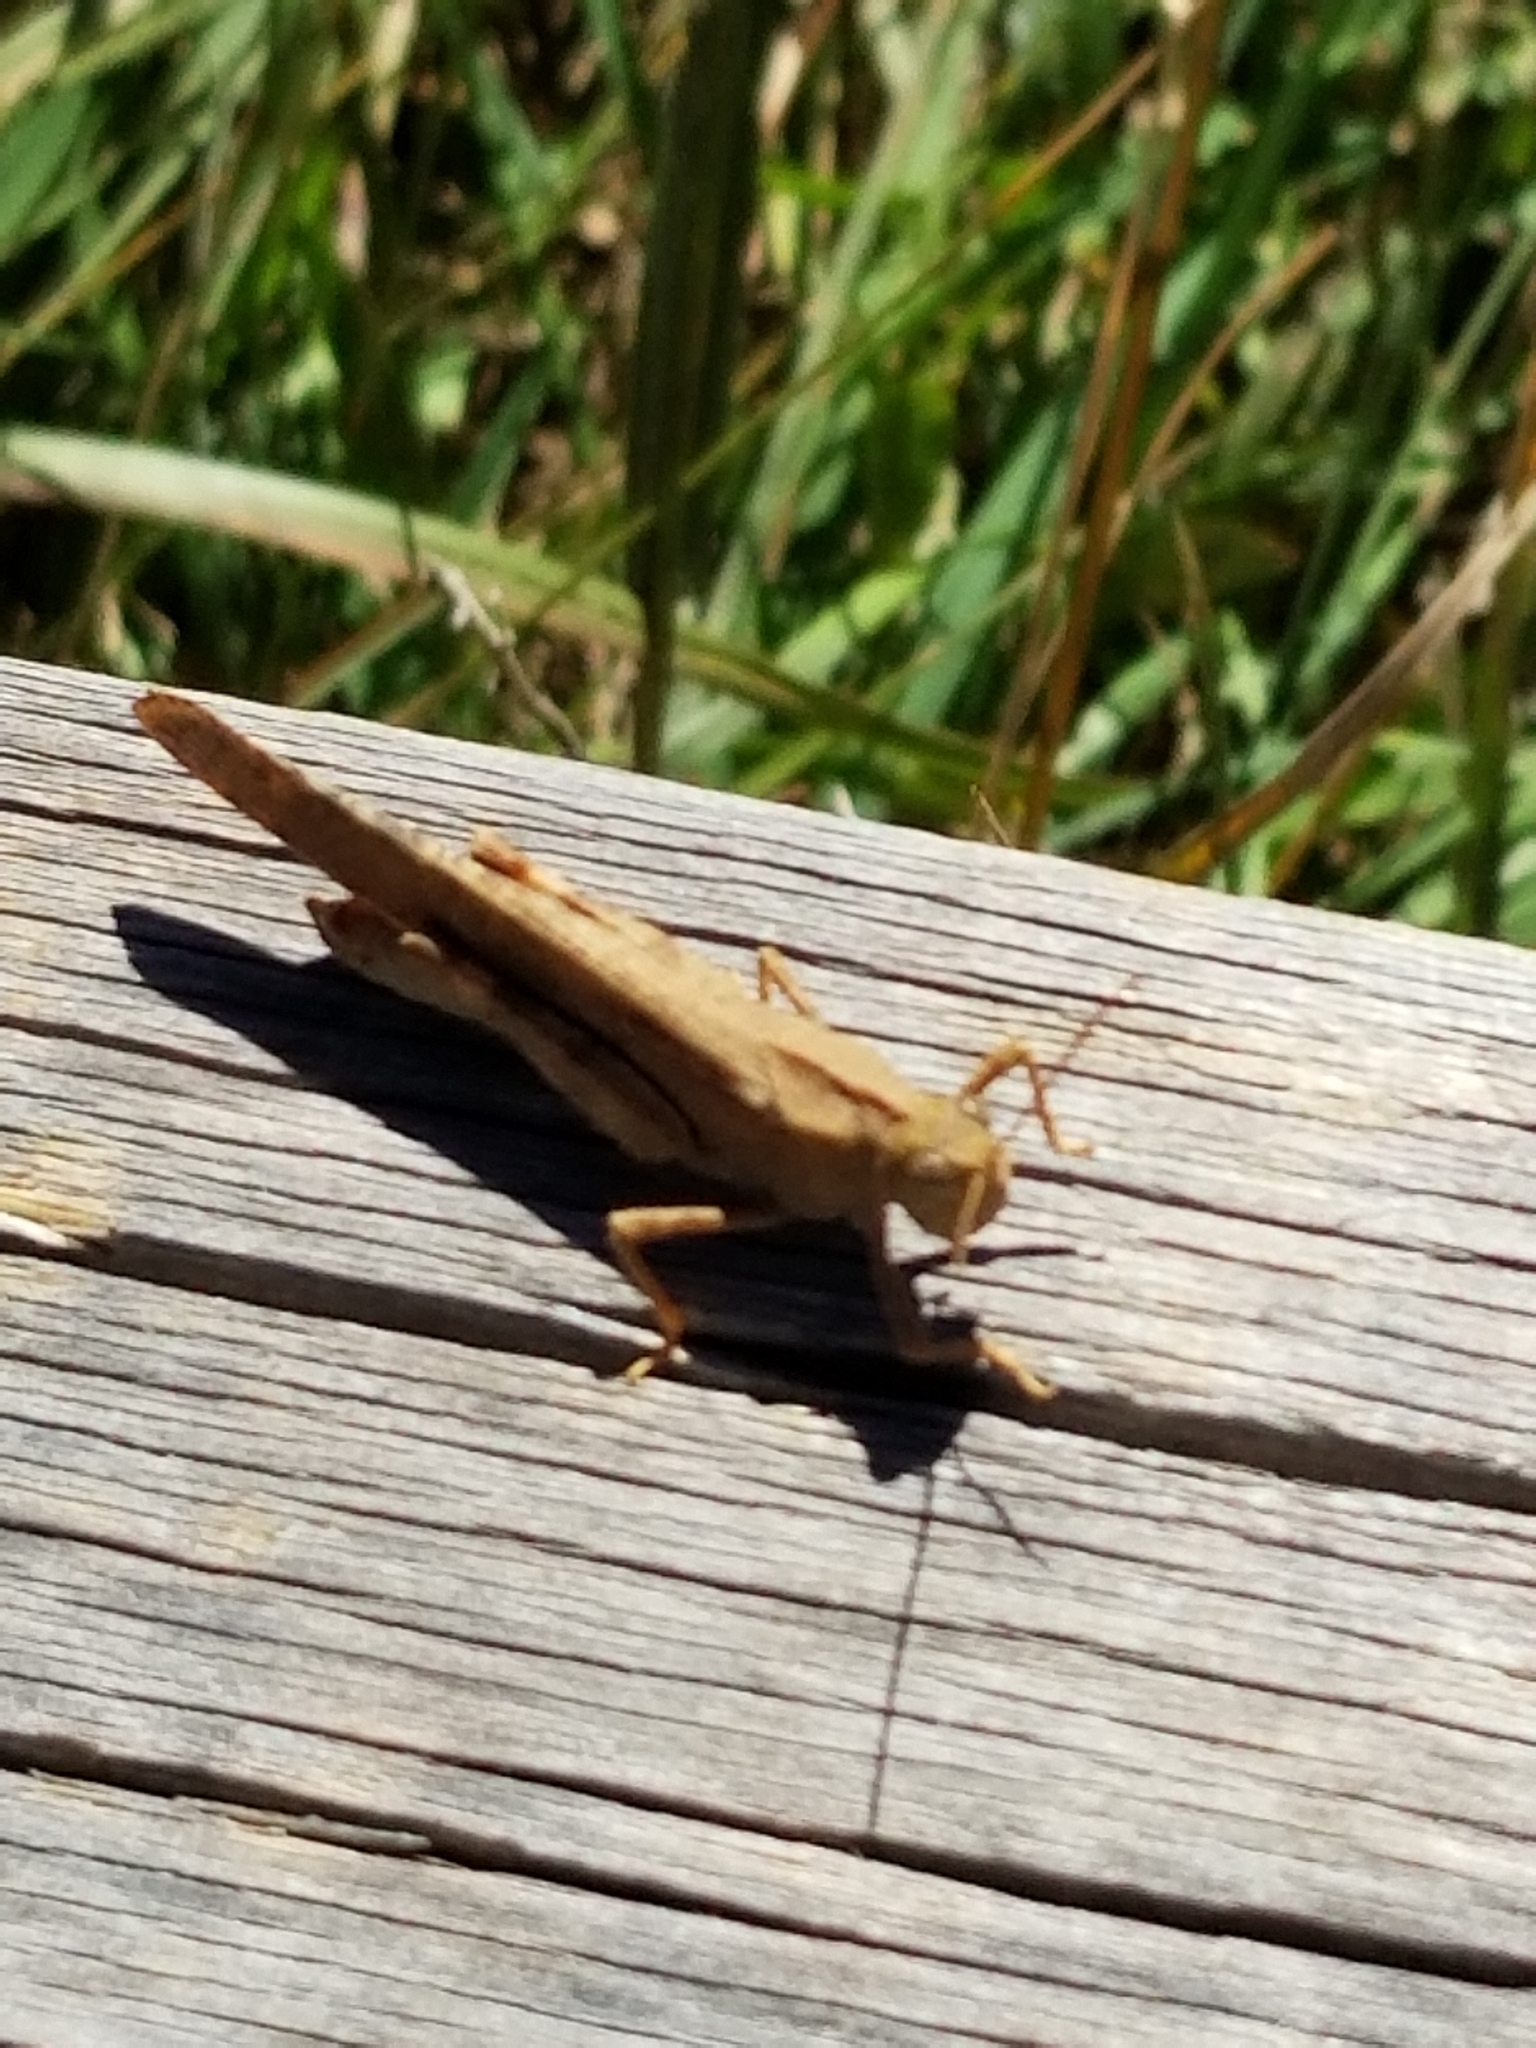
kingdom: Animalia
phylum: Arthropoda
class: Insecta
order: Orthoptera
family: Acrididae
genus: Dissosteira
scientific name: Dissosteira carolina
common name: Carolina grasshopper
